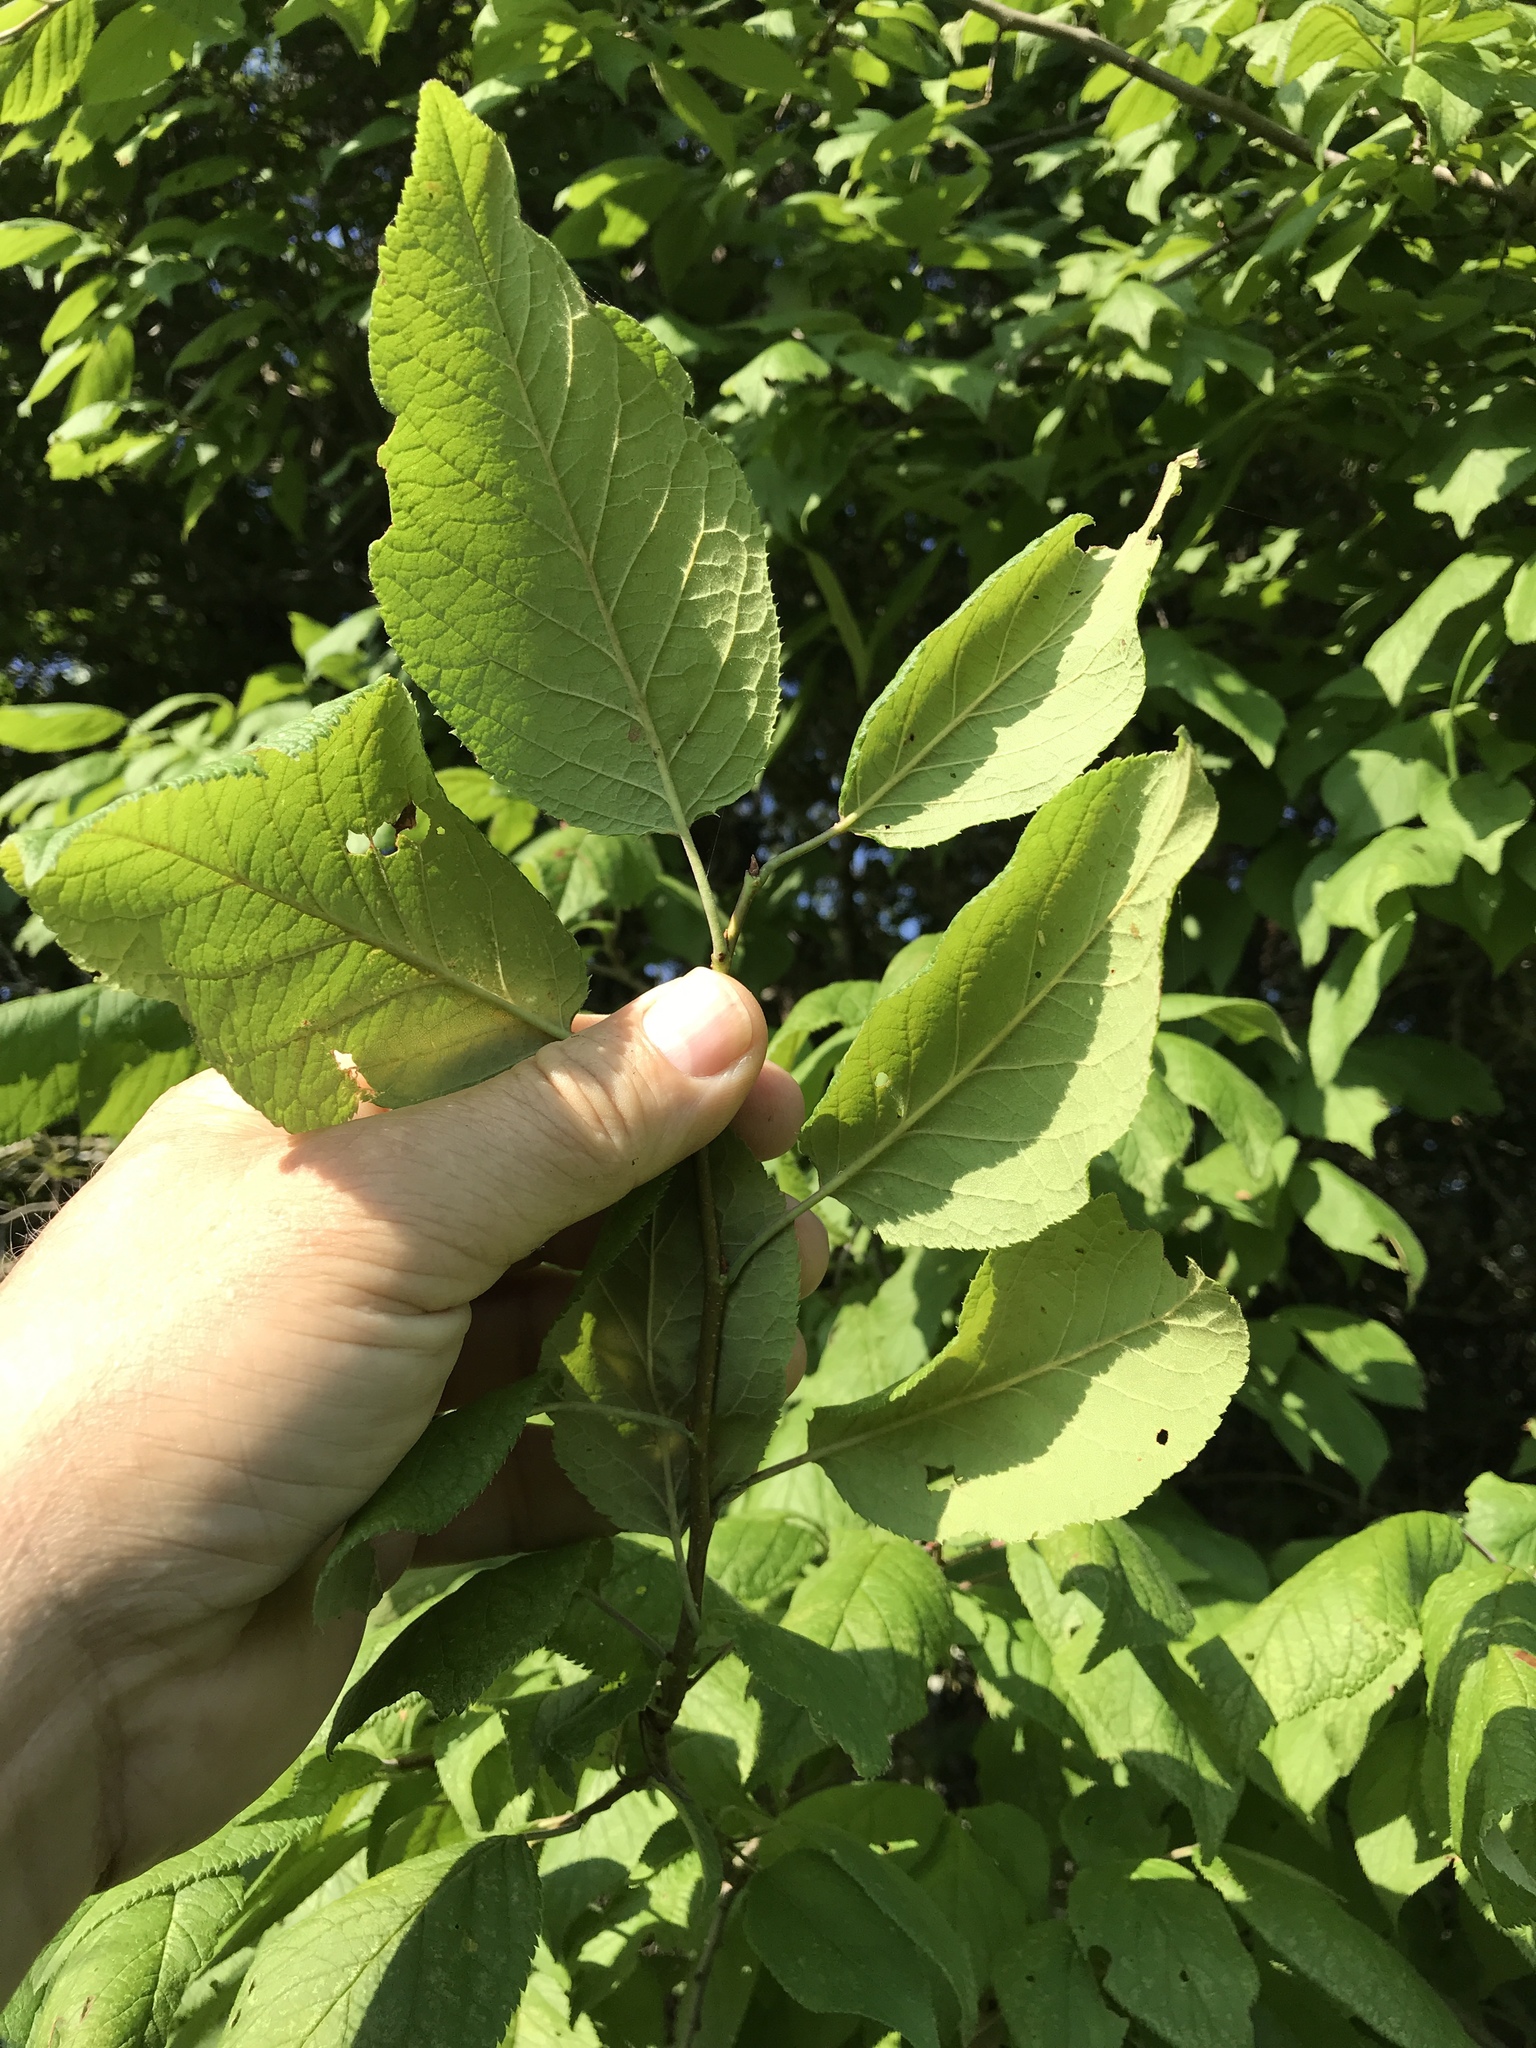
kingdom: Plantae
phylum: Tracheophyta
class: Magnoliopsida
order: Rosales
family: Rosaceae
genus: Prunus
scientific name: Prunus mexicana
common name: Mexican plum
